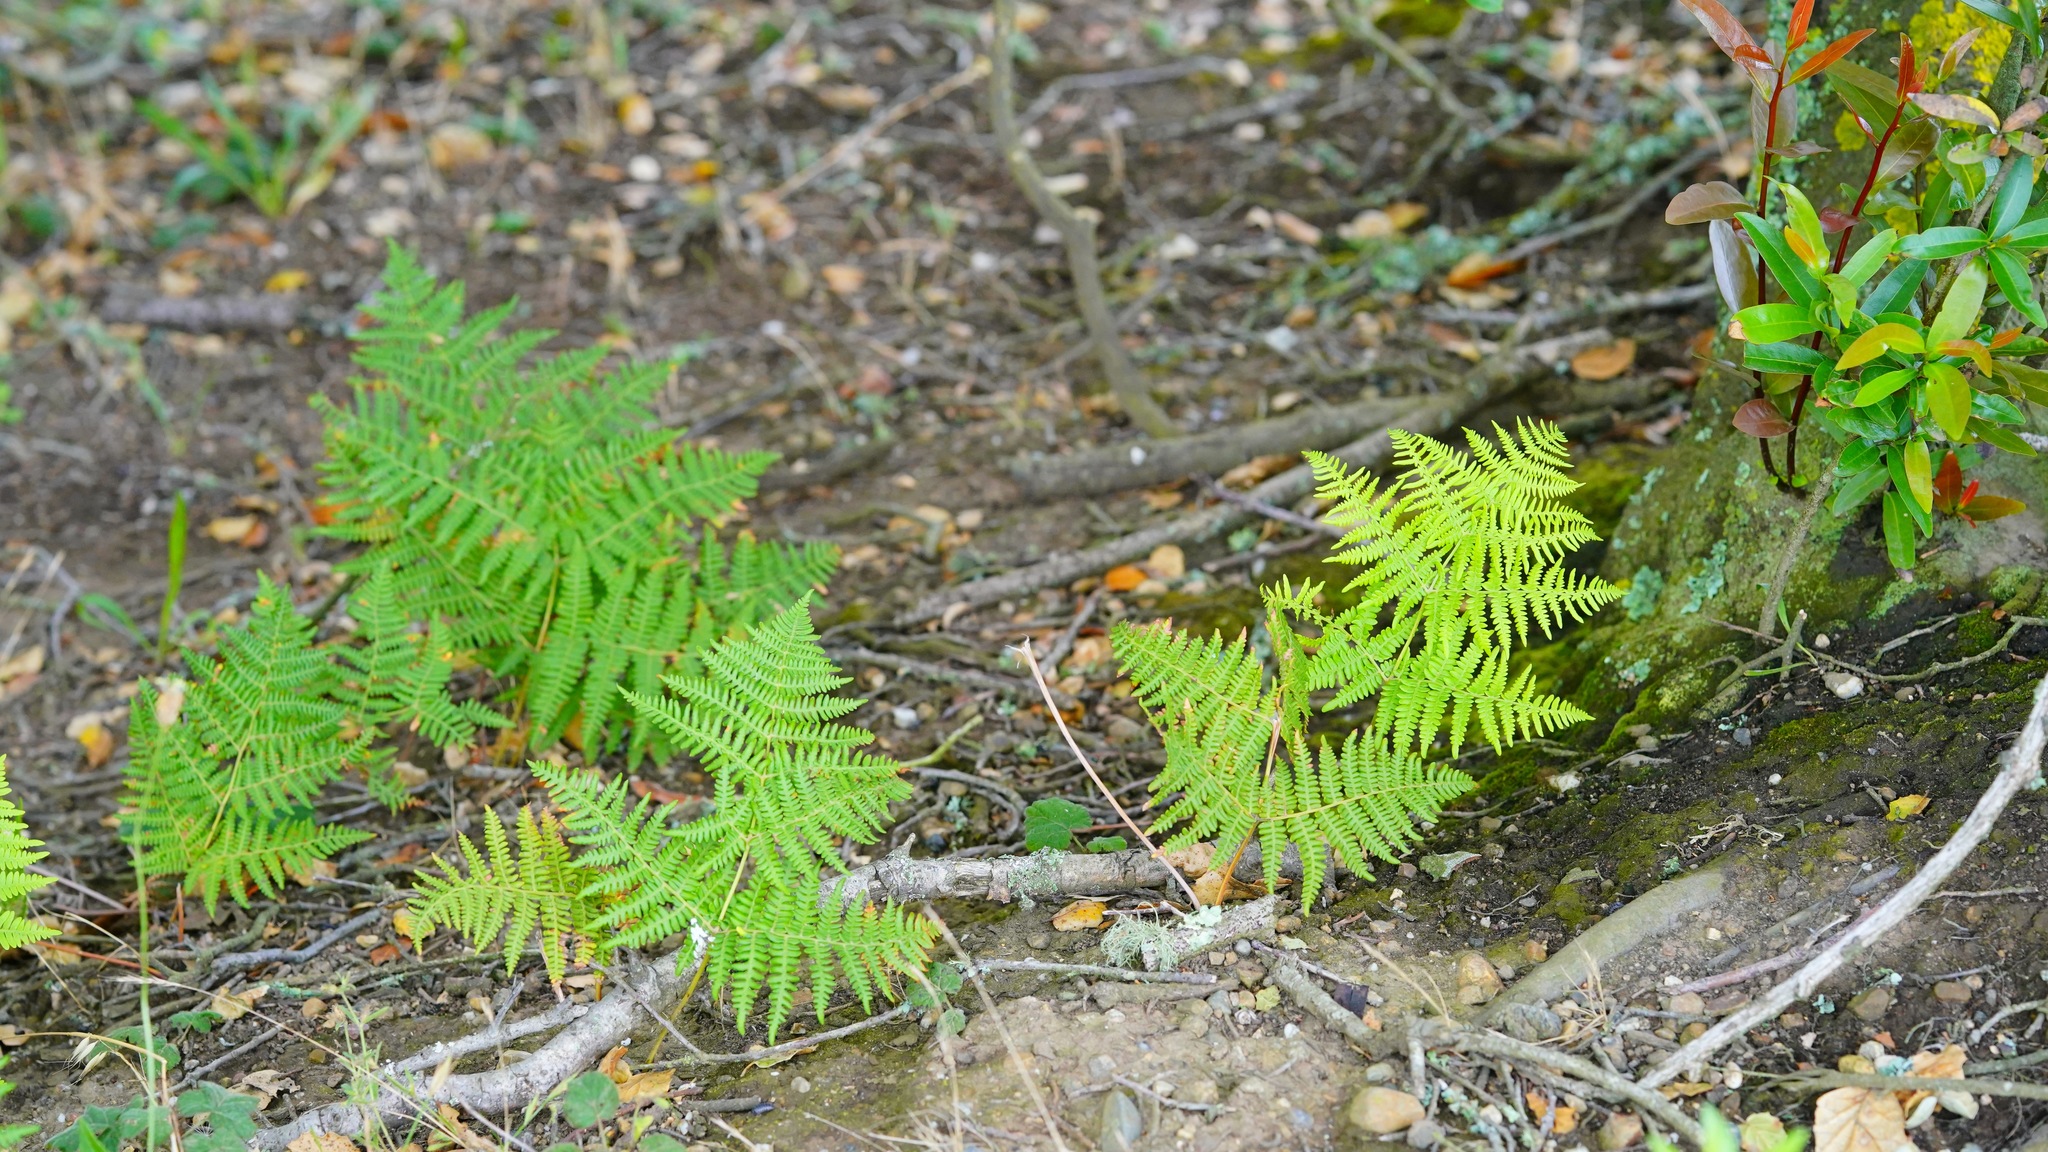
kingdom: Plantae
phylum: Tracheophyta
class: Polypodiopsida
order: Polypodiales
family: Dennstaedtiaceae
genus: Pteridium
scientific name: Pteridium aquilinum
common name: Bracken
